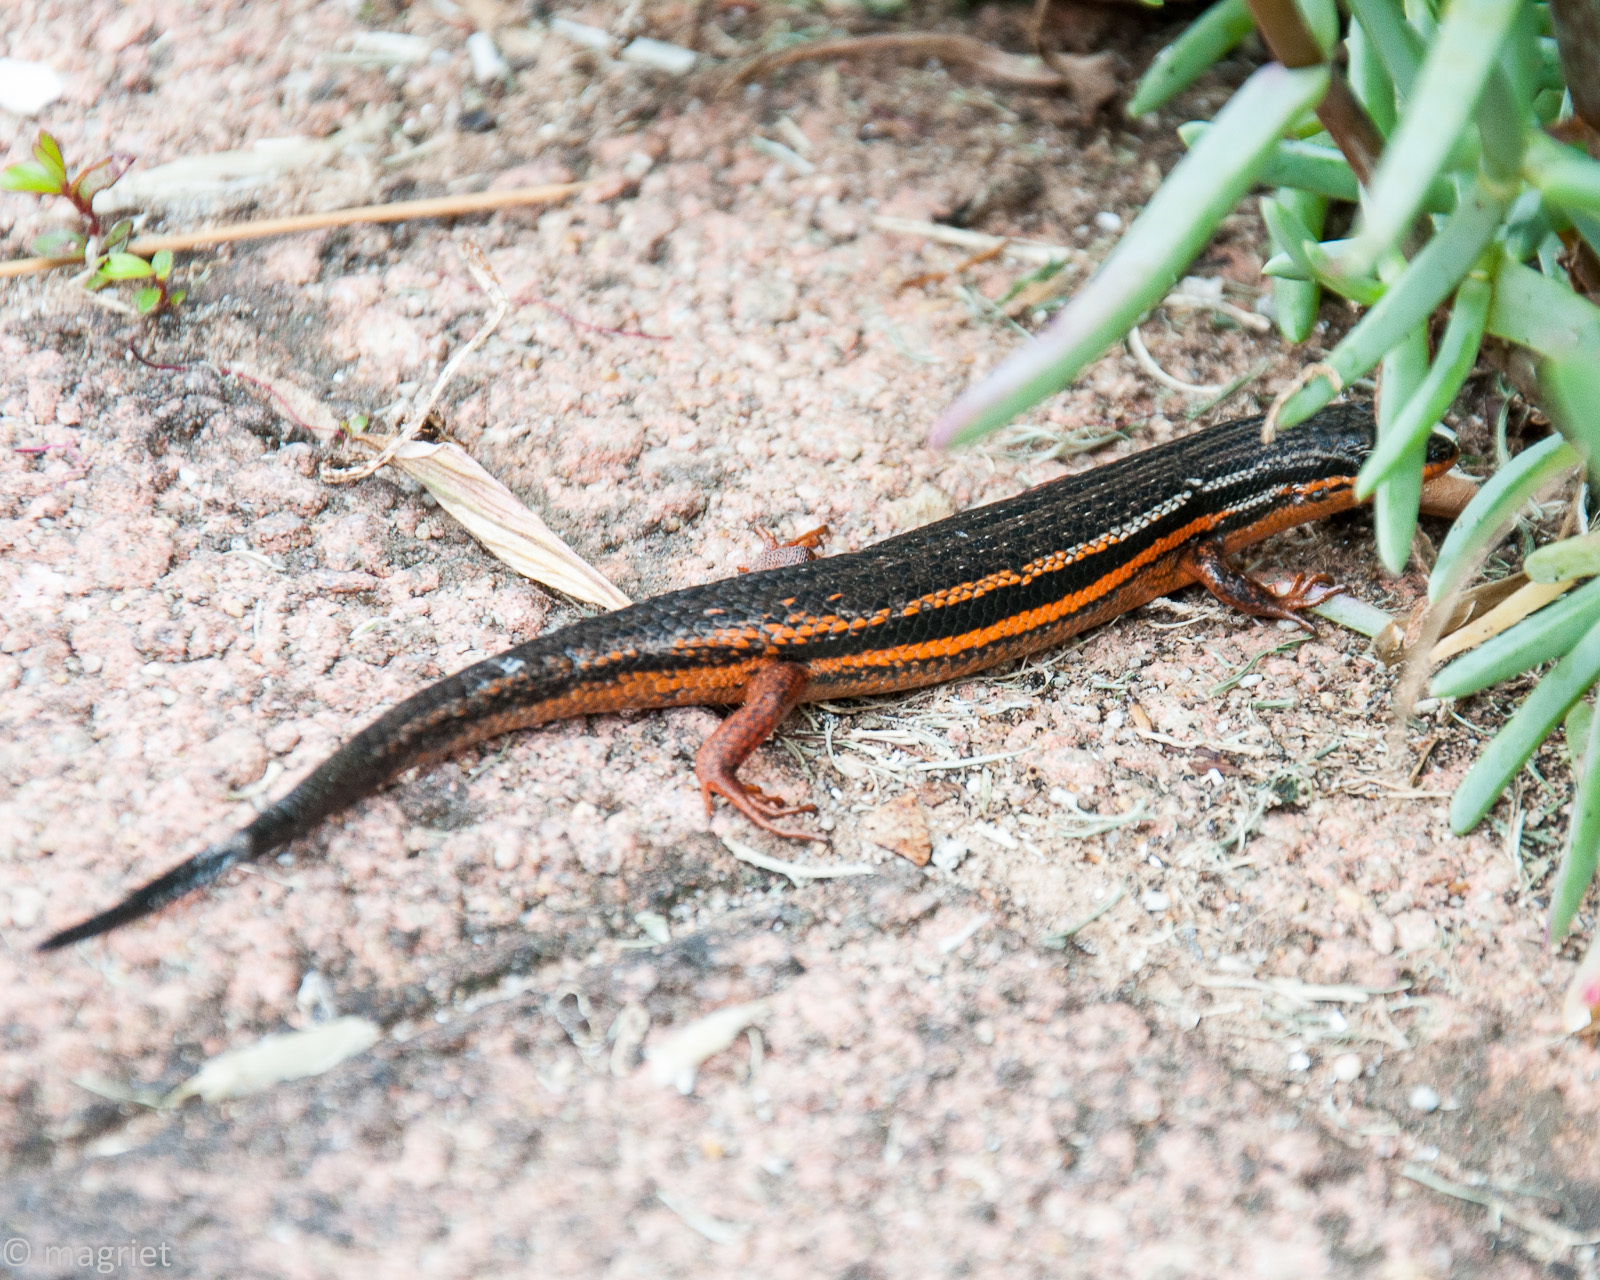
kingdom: Animalia
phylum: Chordata
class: Squamata
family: Scincidae
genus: Trachylepis
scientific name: Trachylepis homalocephala
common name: Red-sided skink
